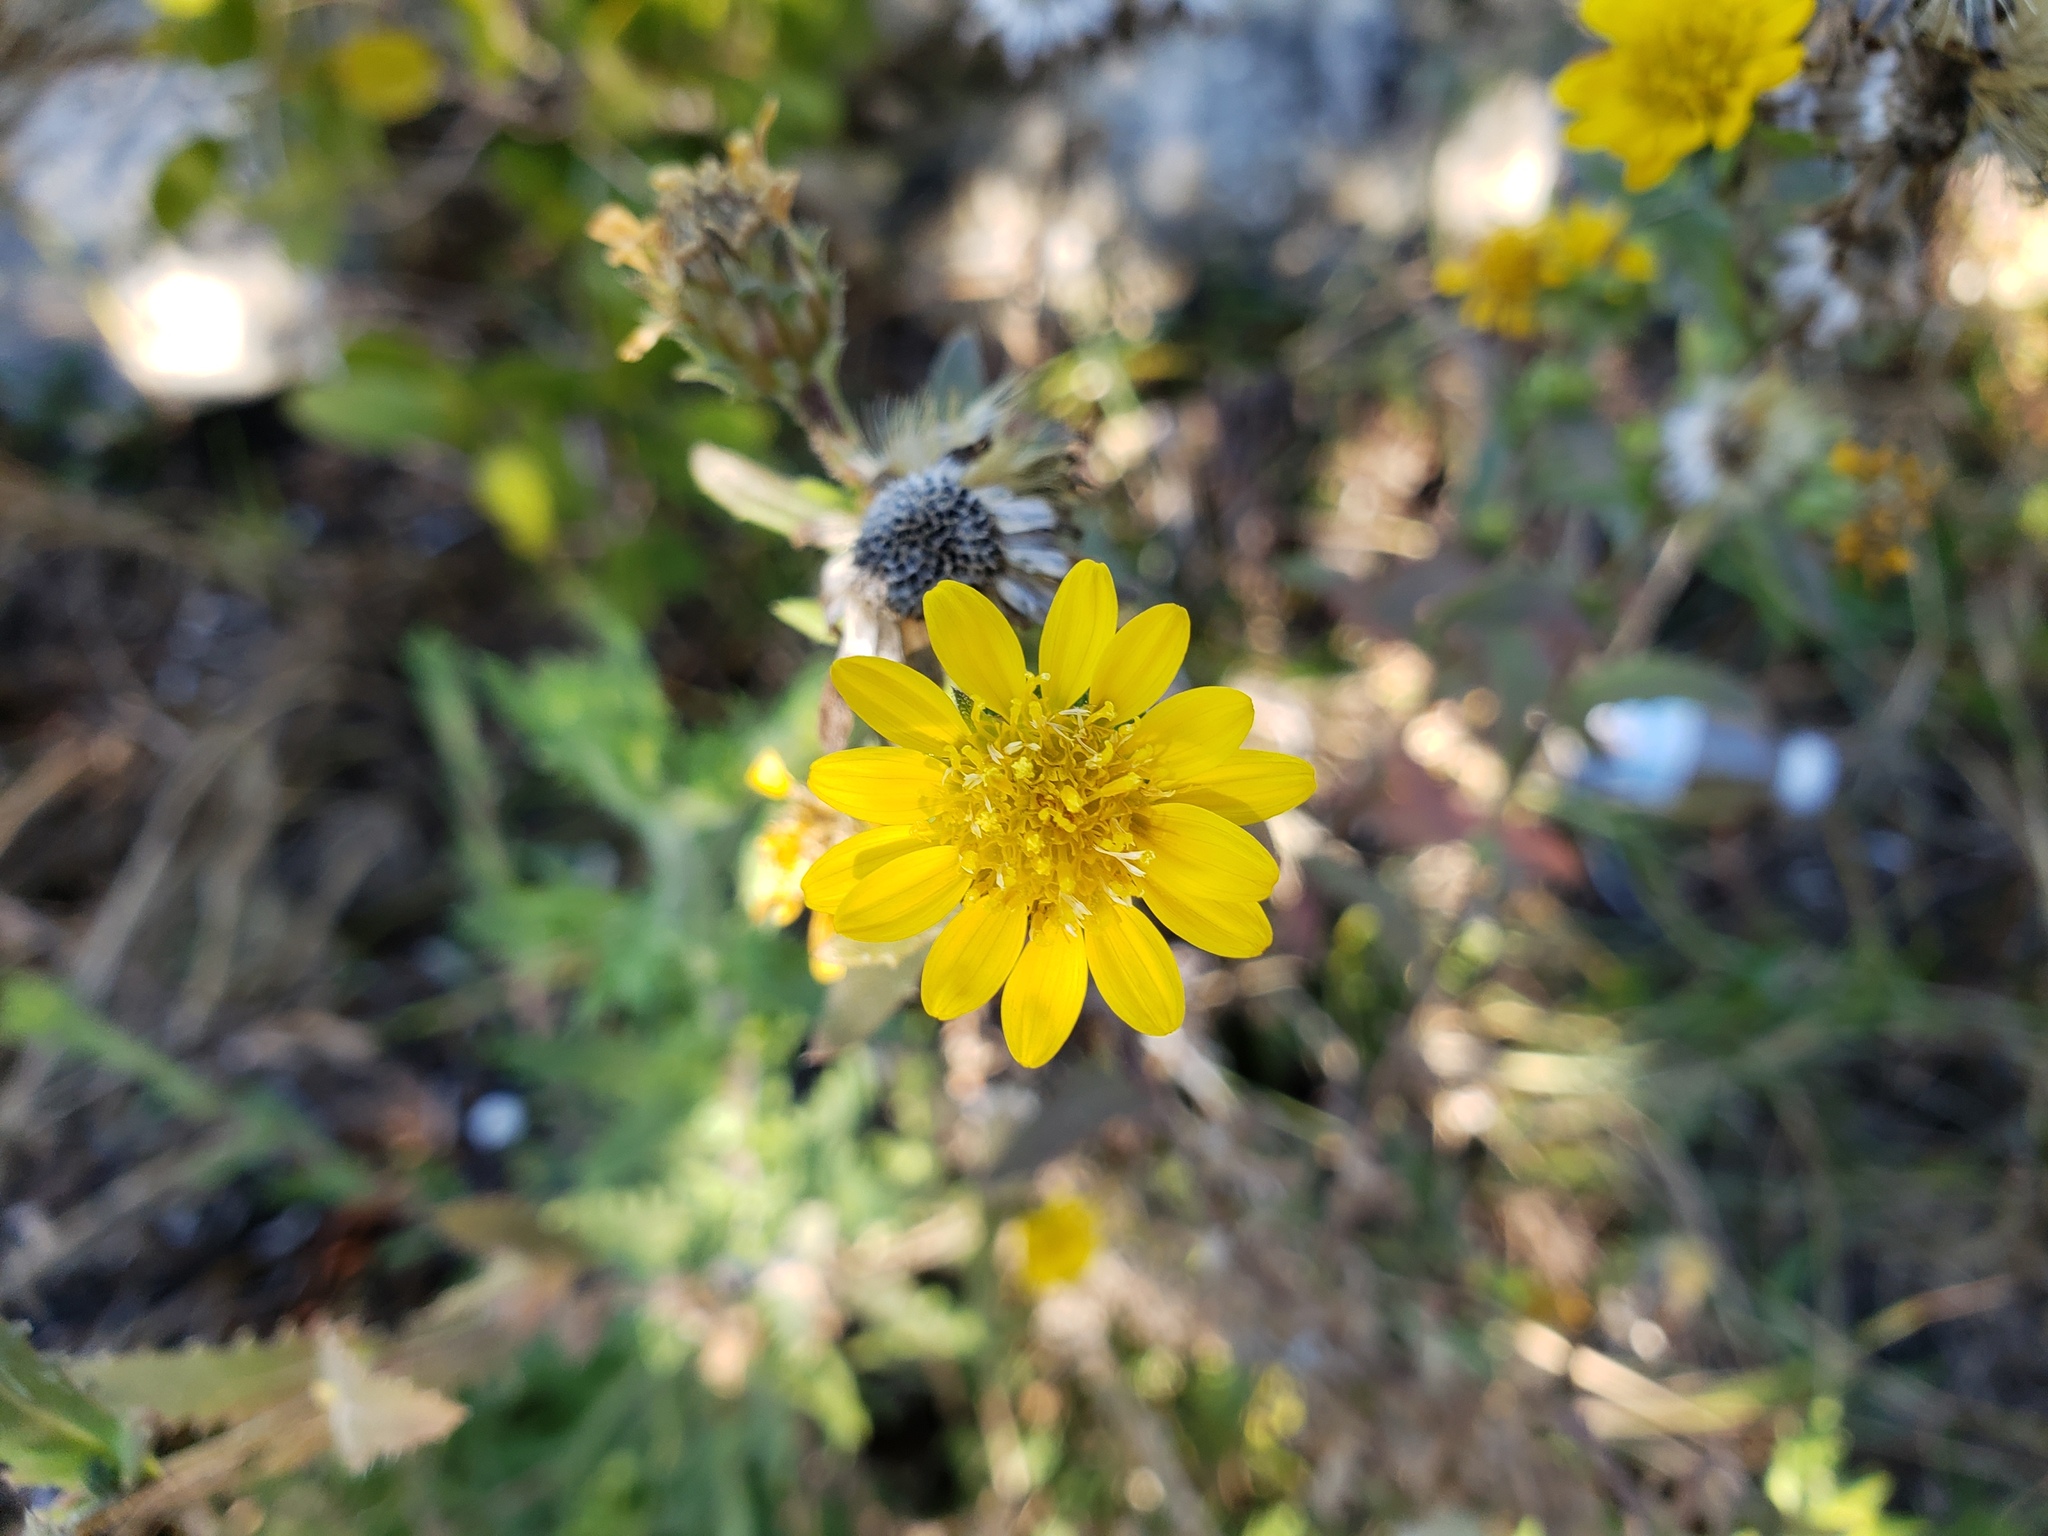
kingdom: Plantae
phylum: Tracheophyta
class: Magnoliopsida
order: Asterales
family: Asteraceae
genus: Rayjacksonia
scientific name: Rayjacksonia phyllocephala
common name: Gulf coast camphor daisy
